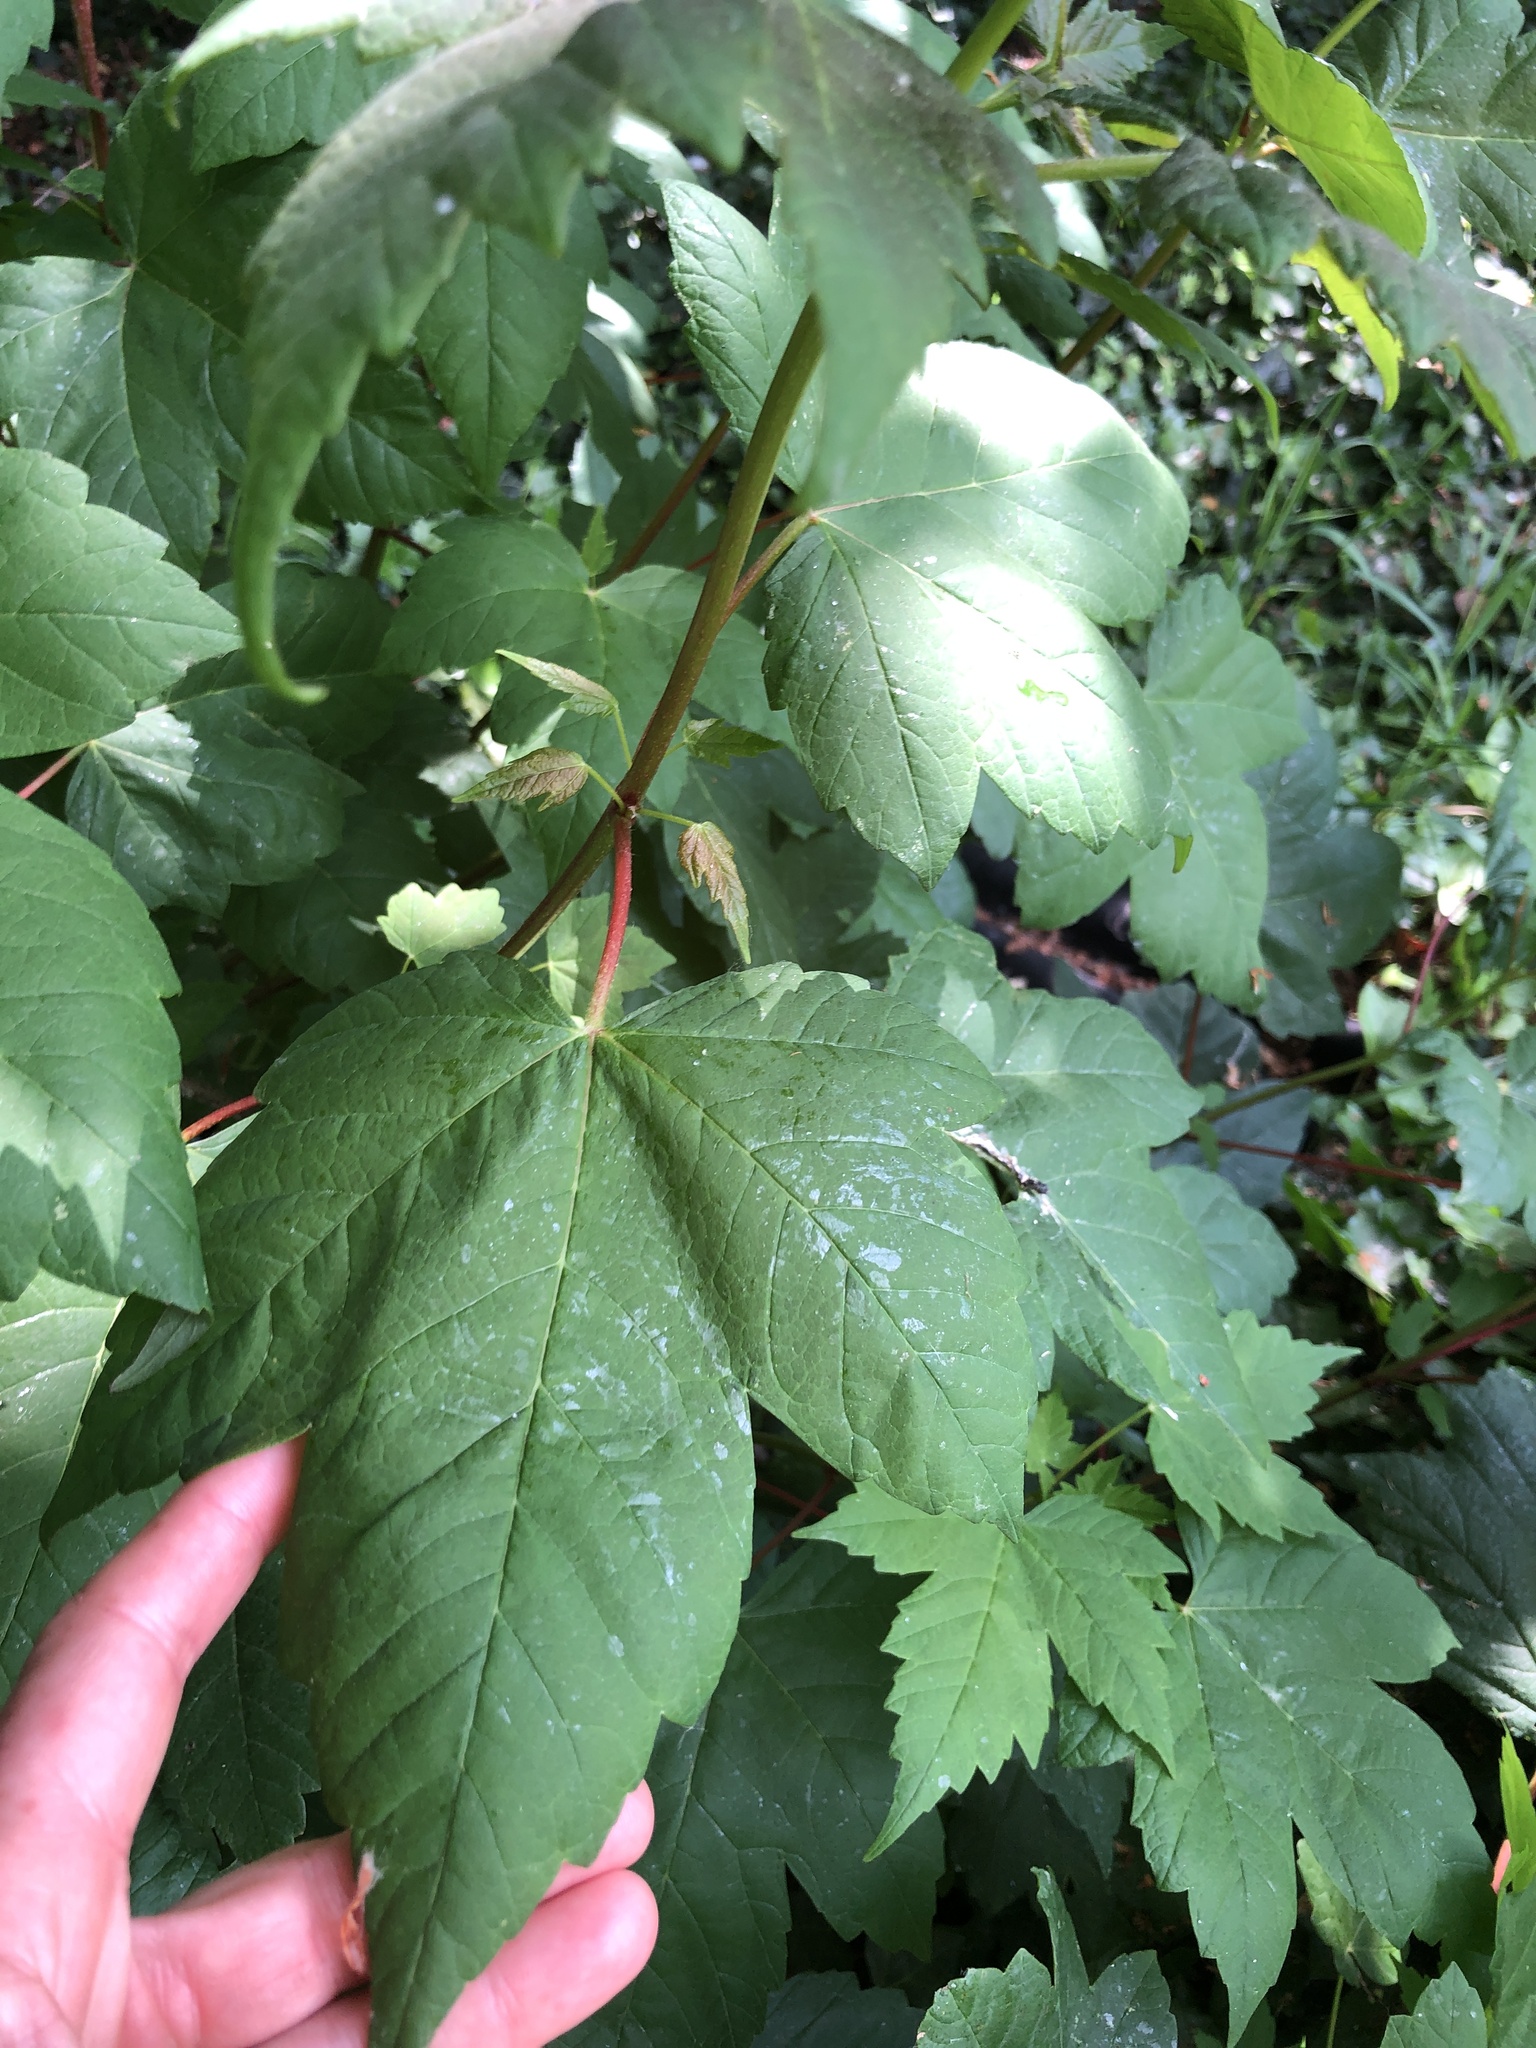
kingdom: Plantae
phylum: Tracheophyta
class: Magnoliopsida
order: Sapindales
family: Sapindaceae
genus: Acer
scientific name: Acer pseudoplatanus
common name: Sycamore
